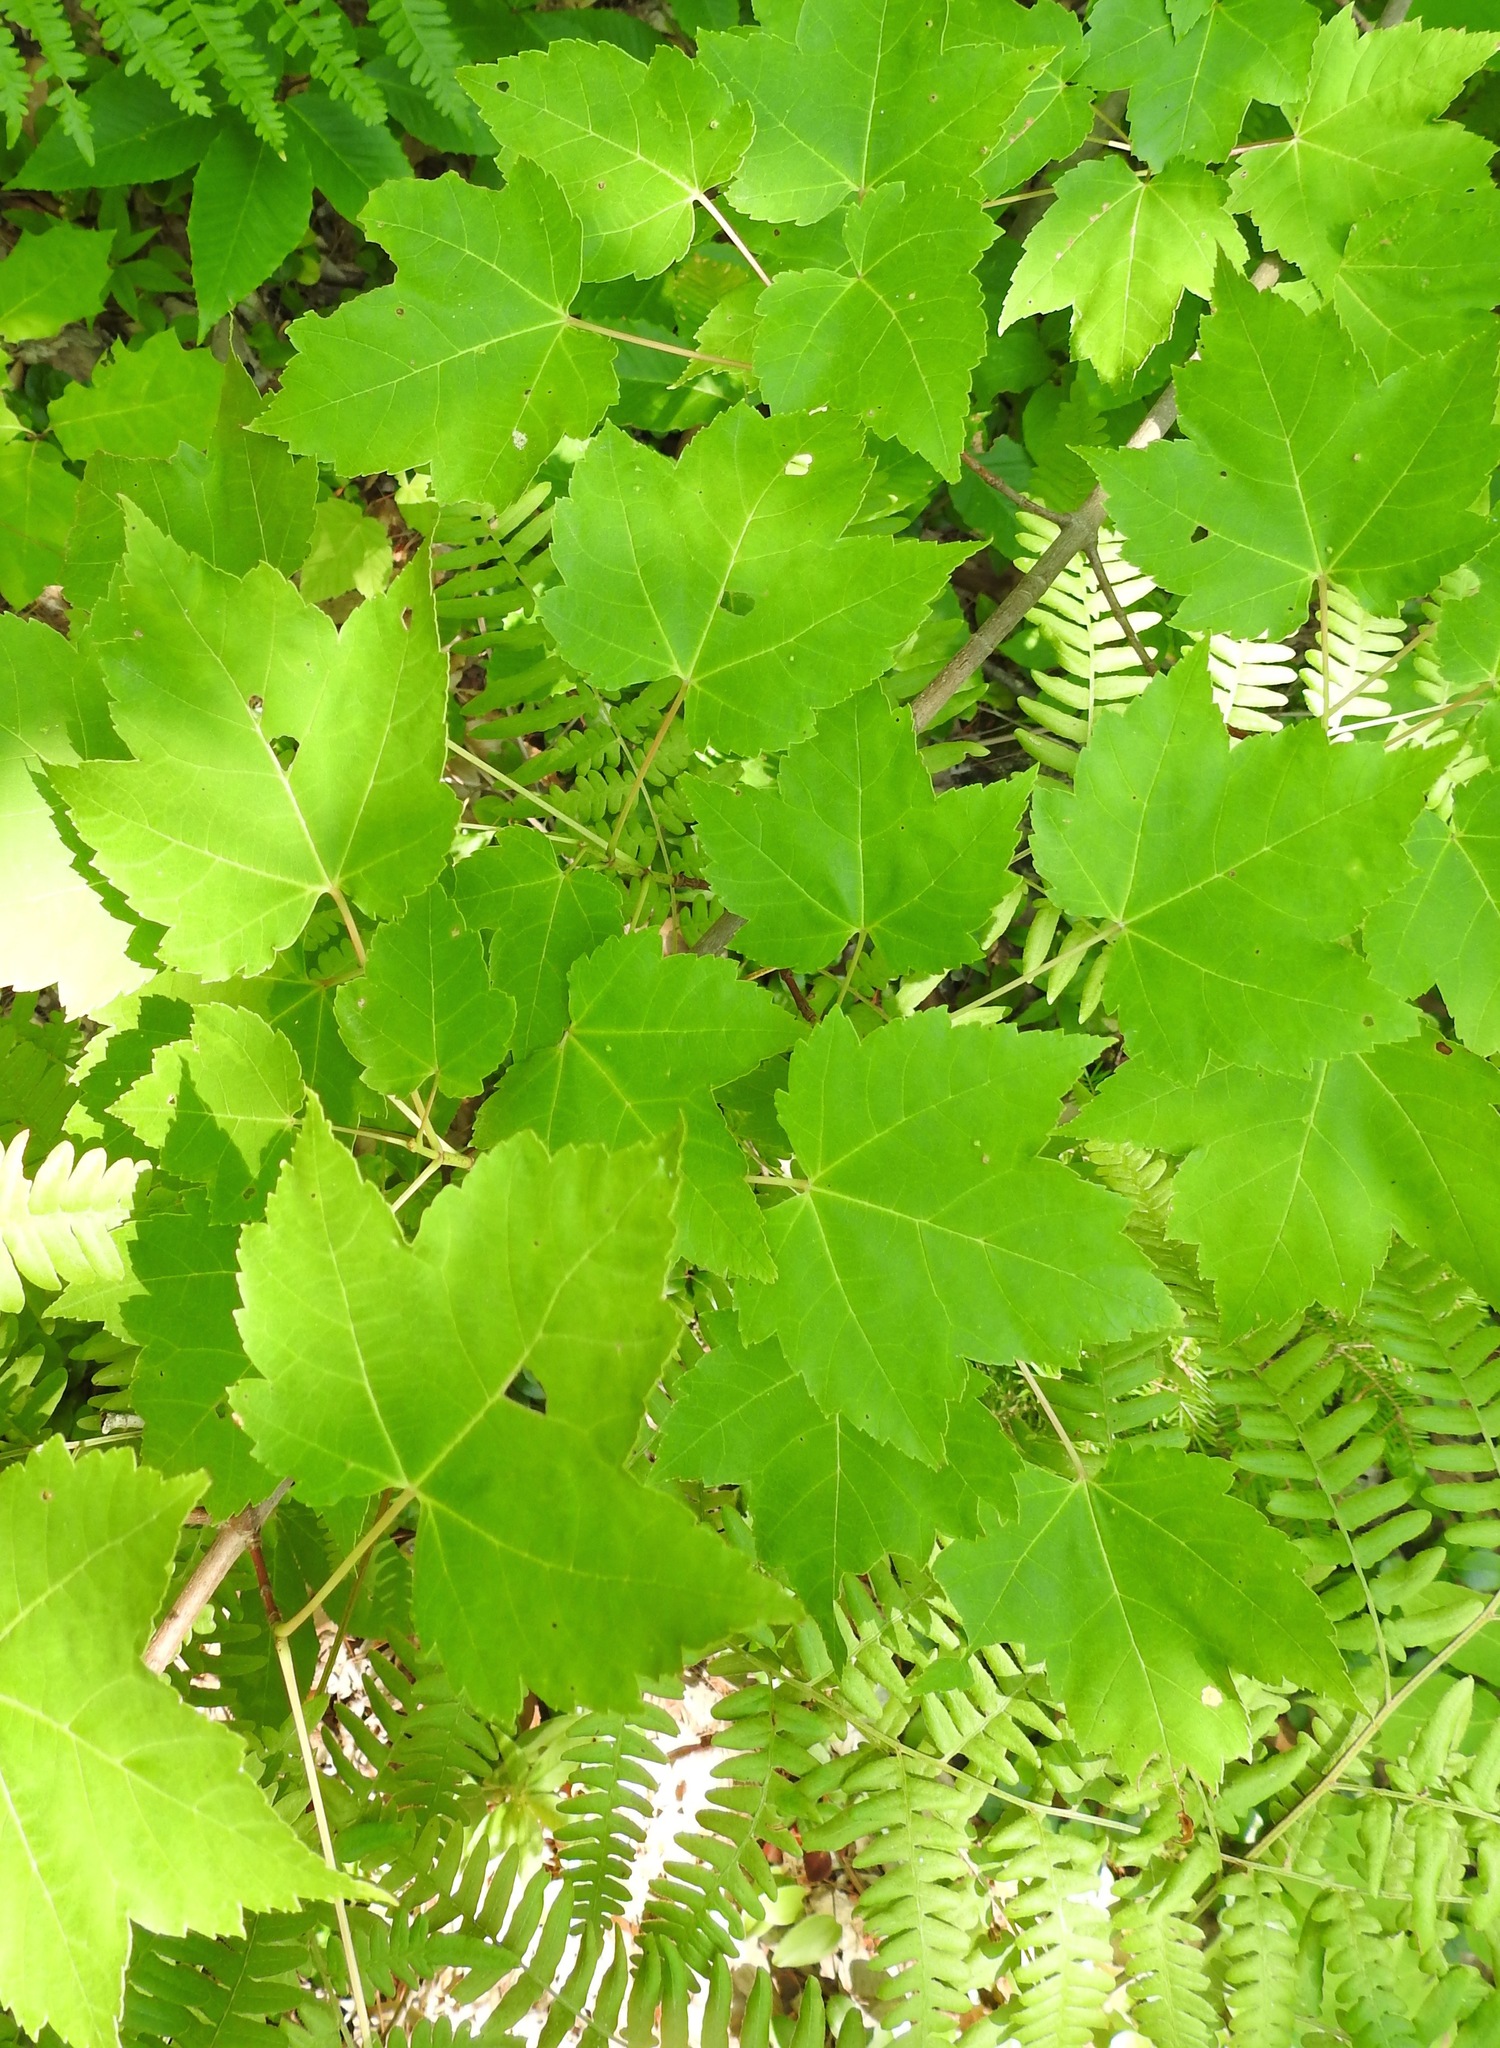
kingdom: Plantae
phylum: Tracheophyta
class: Magnoliopsida
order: Sapindales
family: Sapindaceae
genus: Acer
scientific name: Acer rubrum
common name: Red maple
